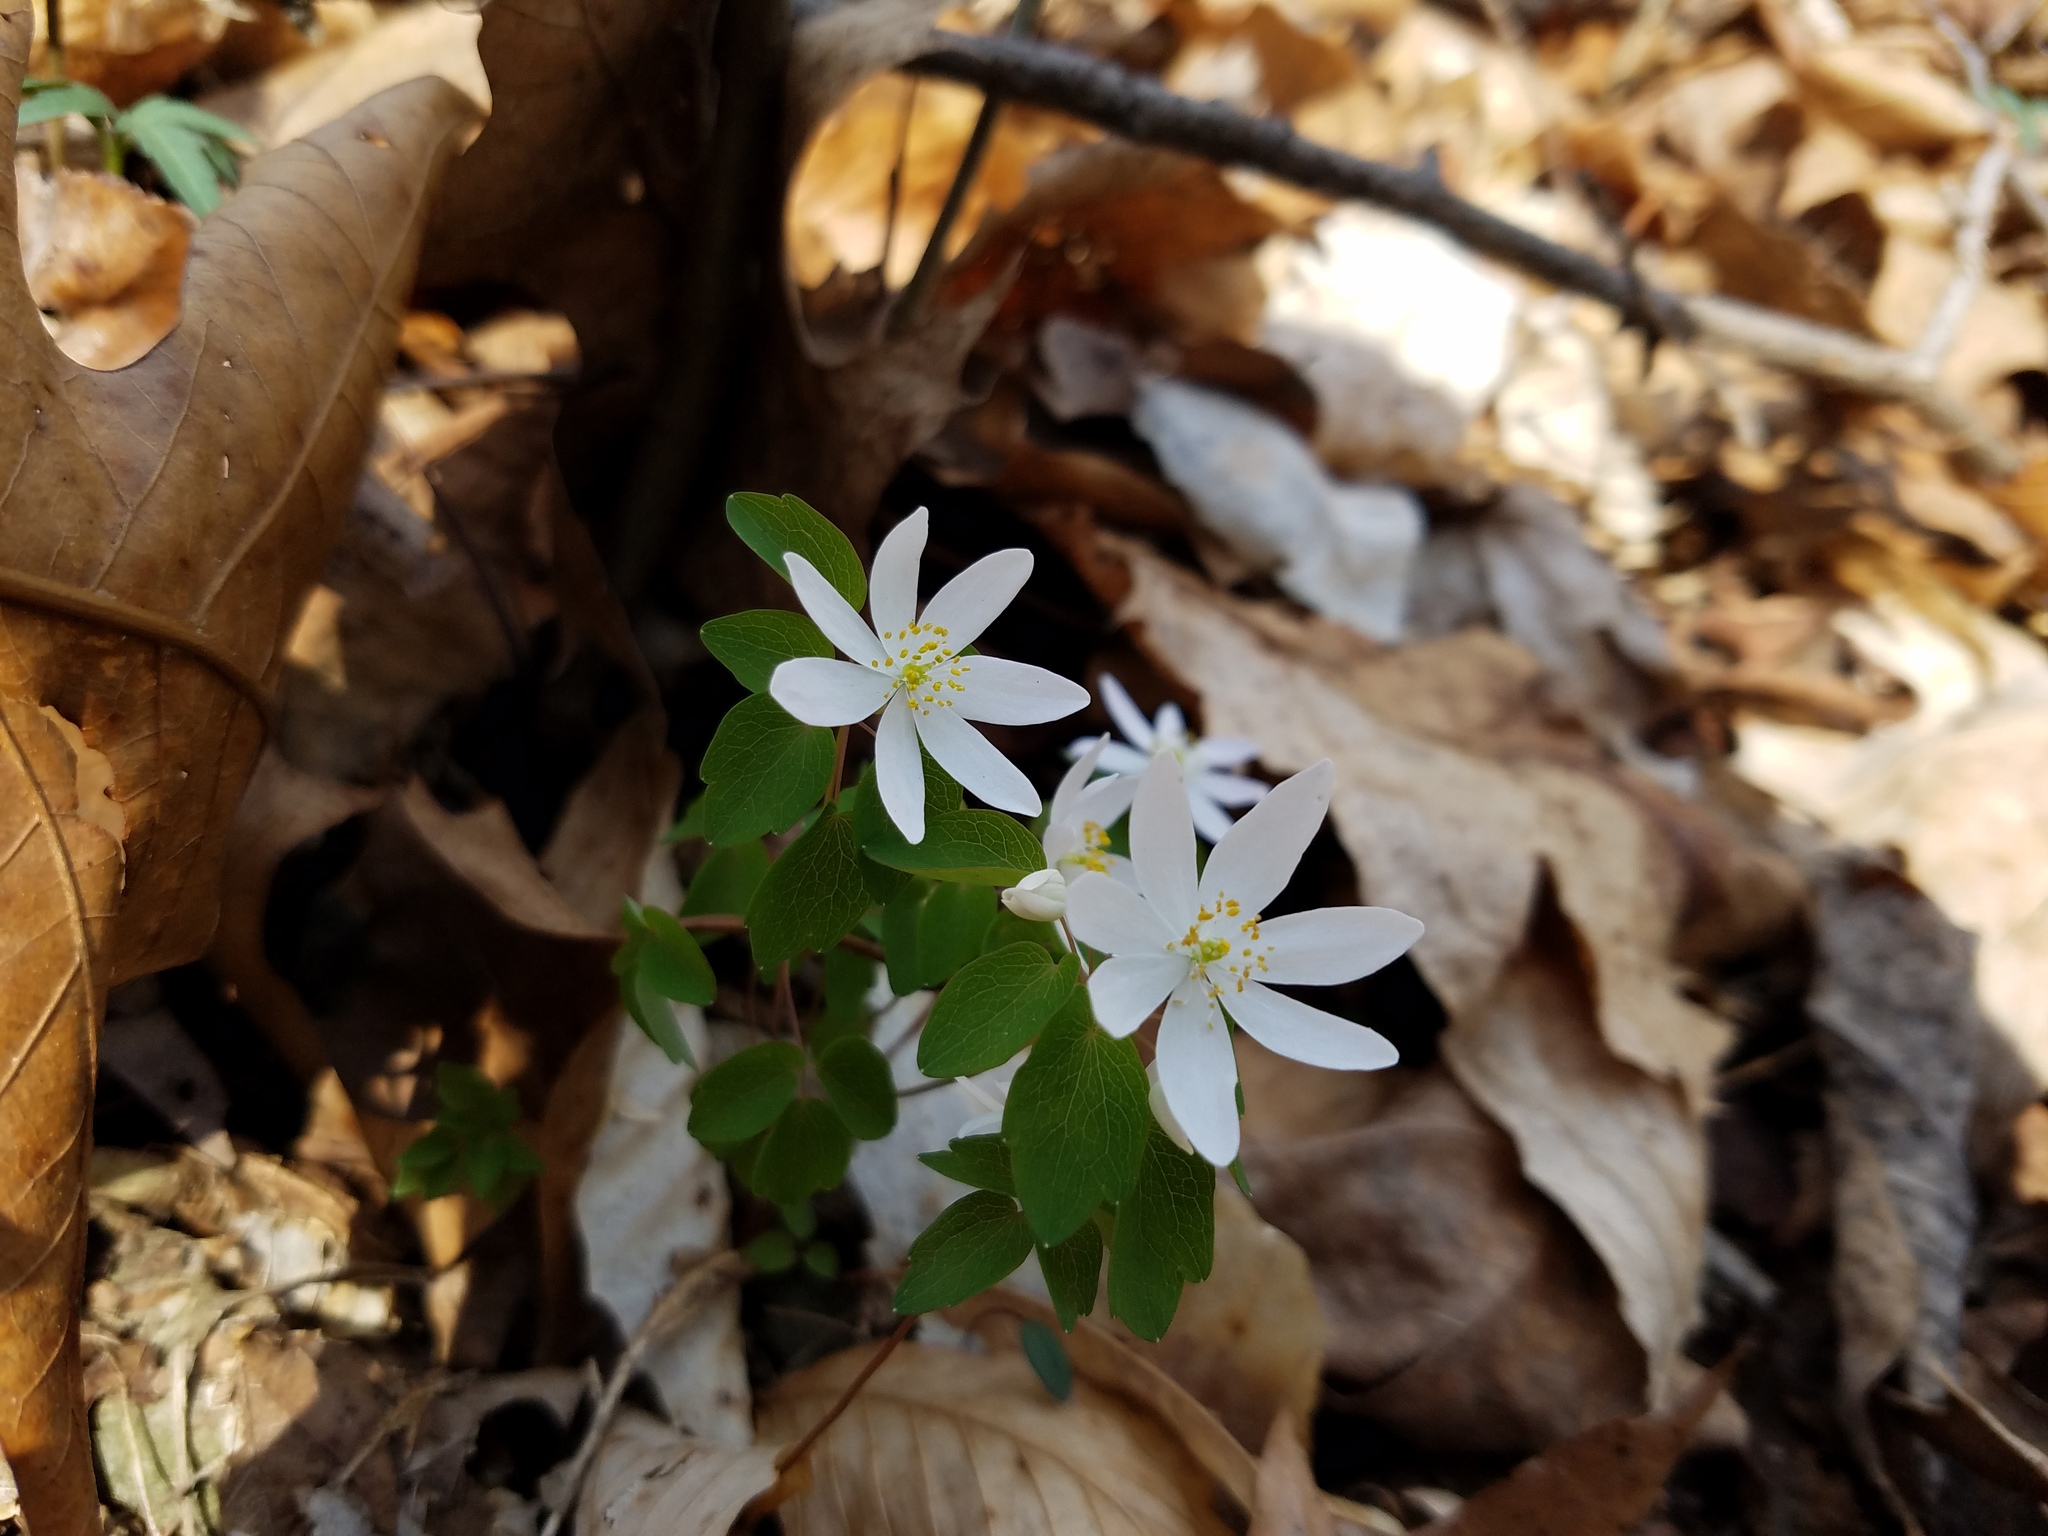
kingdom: Plantae
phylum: Tracheophyta
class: Magnoliopsida
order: Ranunculales
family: Ranunculaceae
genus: Thalictrum
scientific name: Thalictrum thalictroides
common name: Rue-anemone
